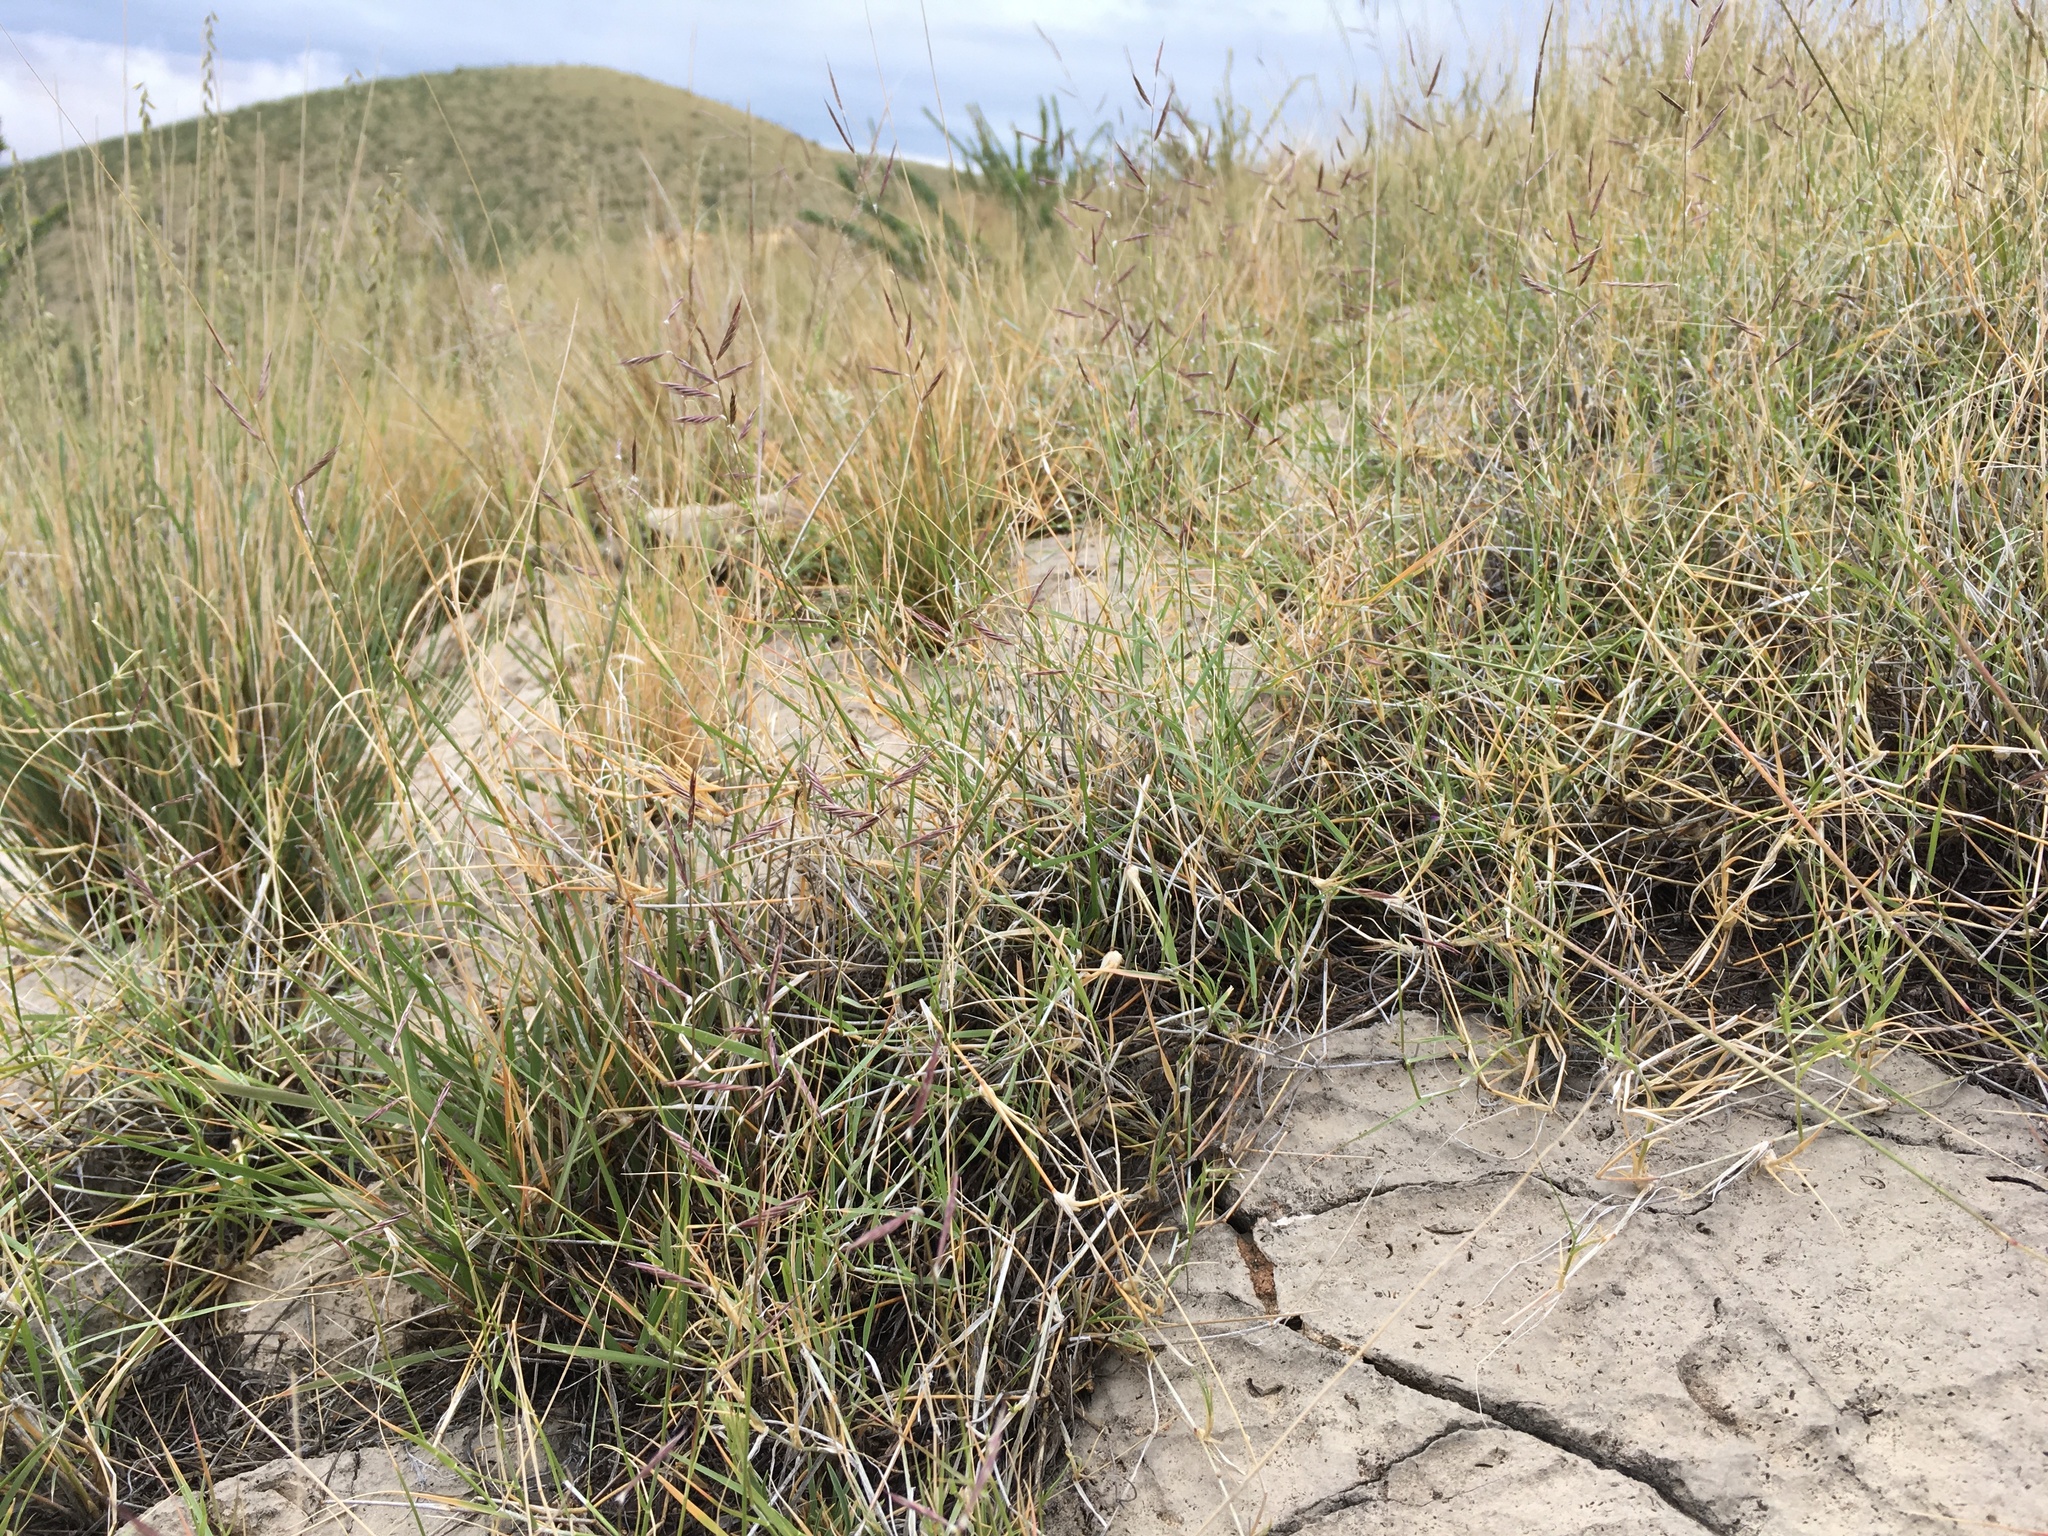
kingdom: Plantae
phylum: Tracheophyta
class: Liliopsida
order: Poales
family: Poaceae
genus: Bouteloua
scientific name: Bouteloua eriopoda
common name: Woolly foot grama
